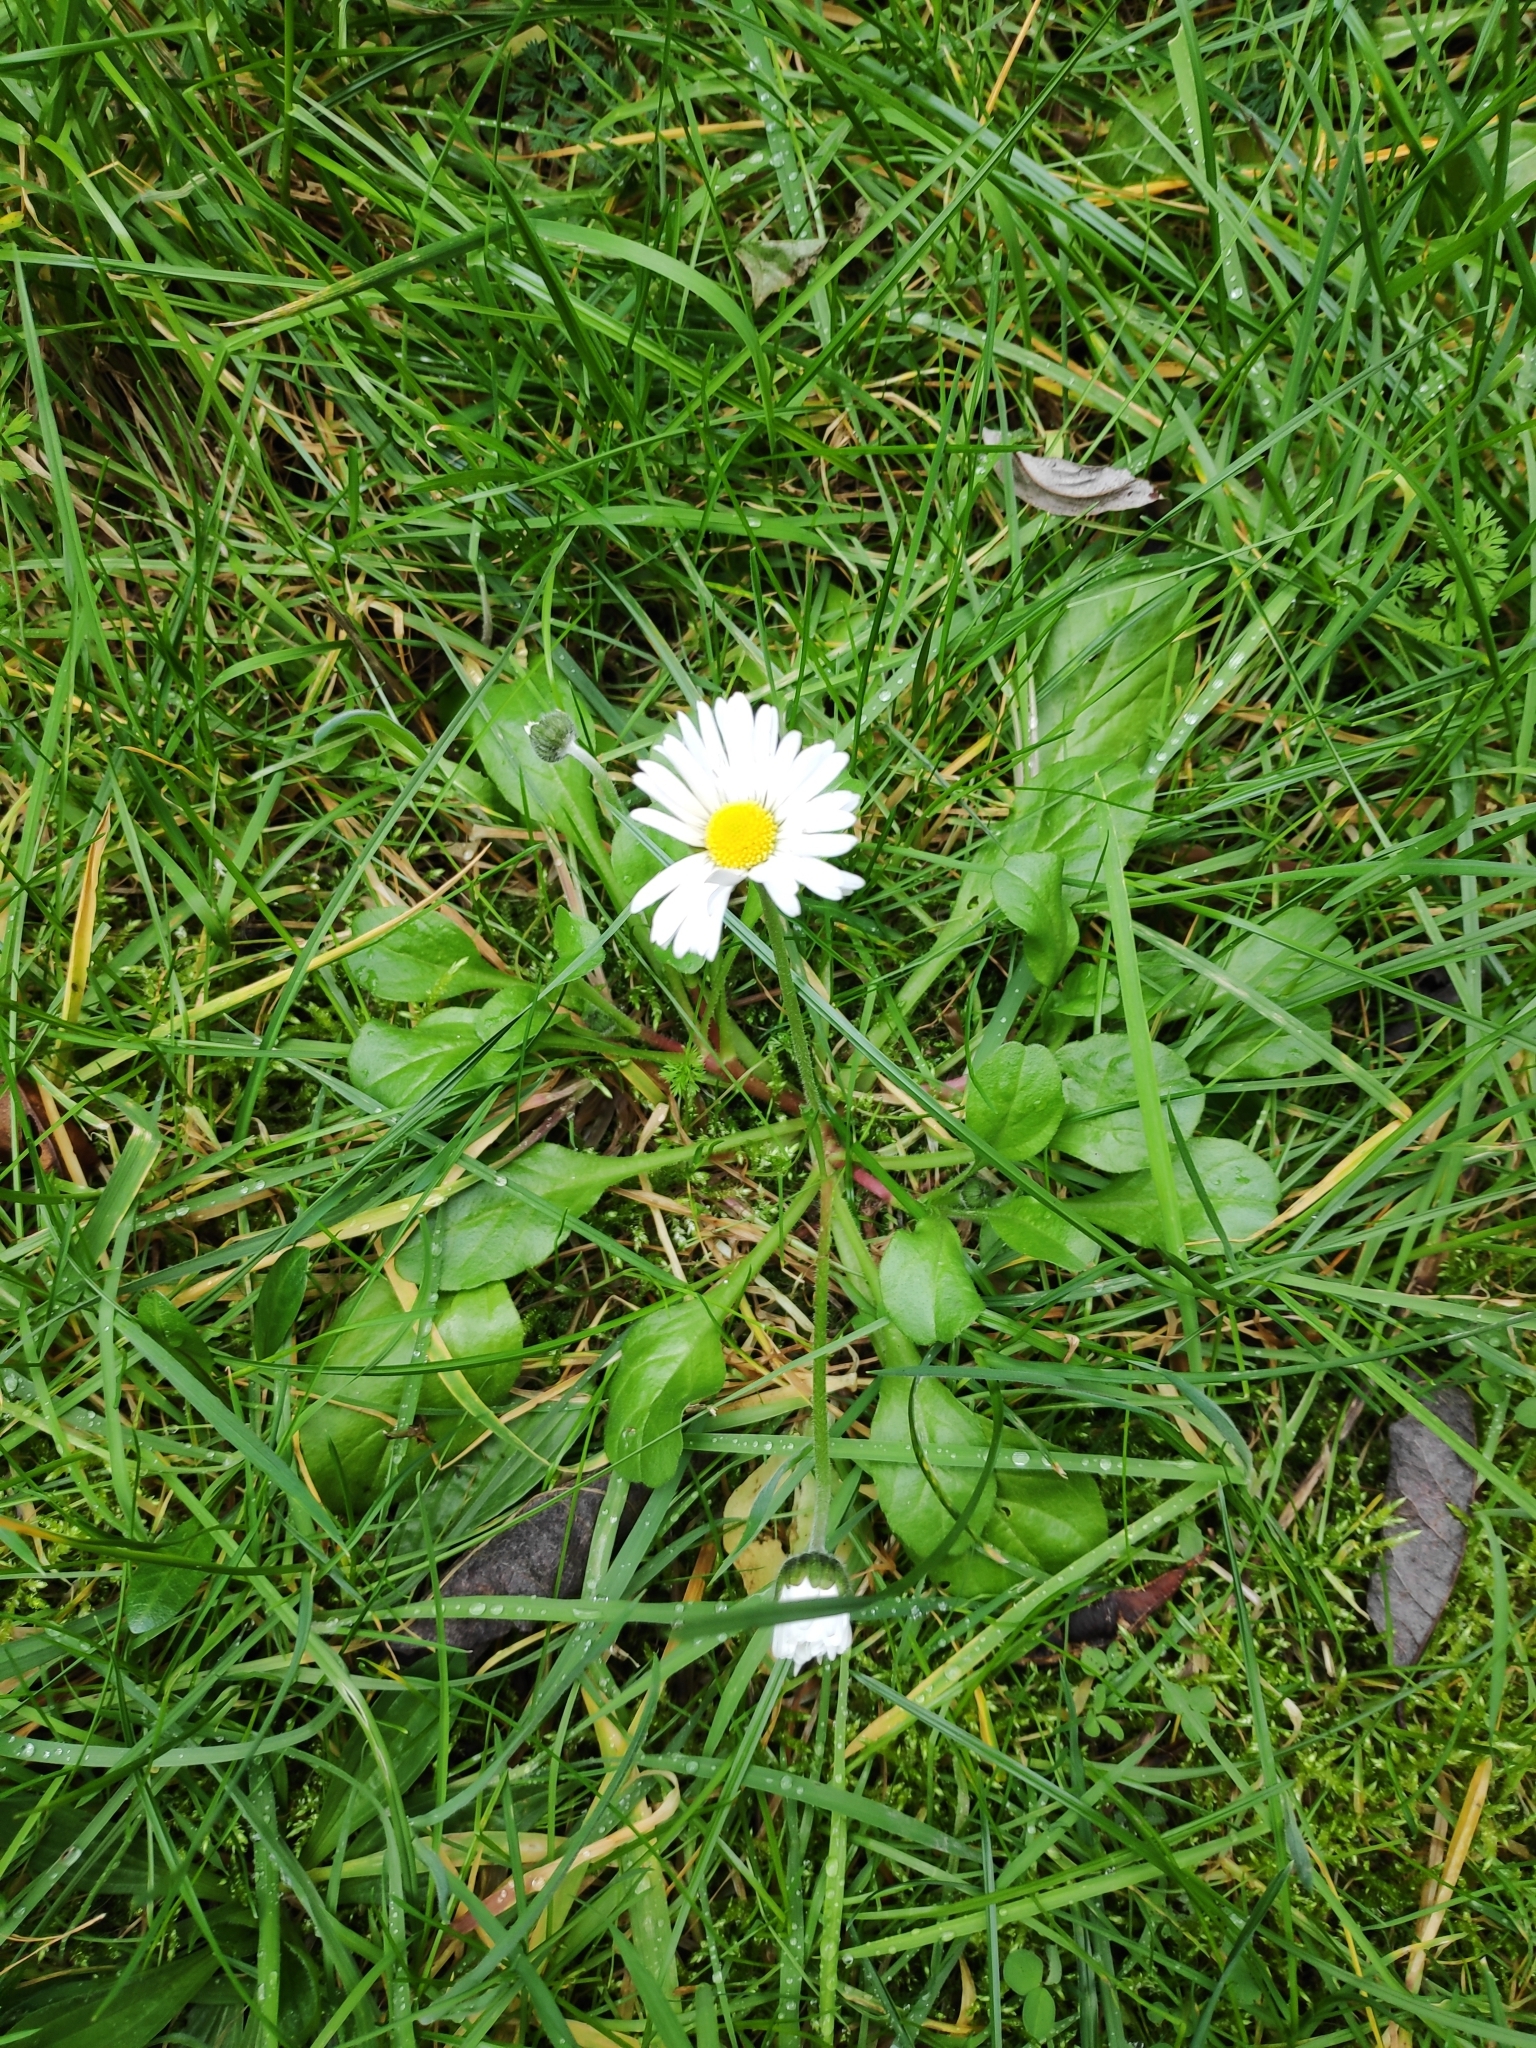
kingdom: Plantae
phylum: Tracheophyta
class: Magnoliopsida
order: Asterales
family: Asteraceae
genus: Bellis
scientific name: Bellis perennis
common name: Lawndaisy
